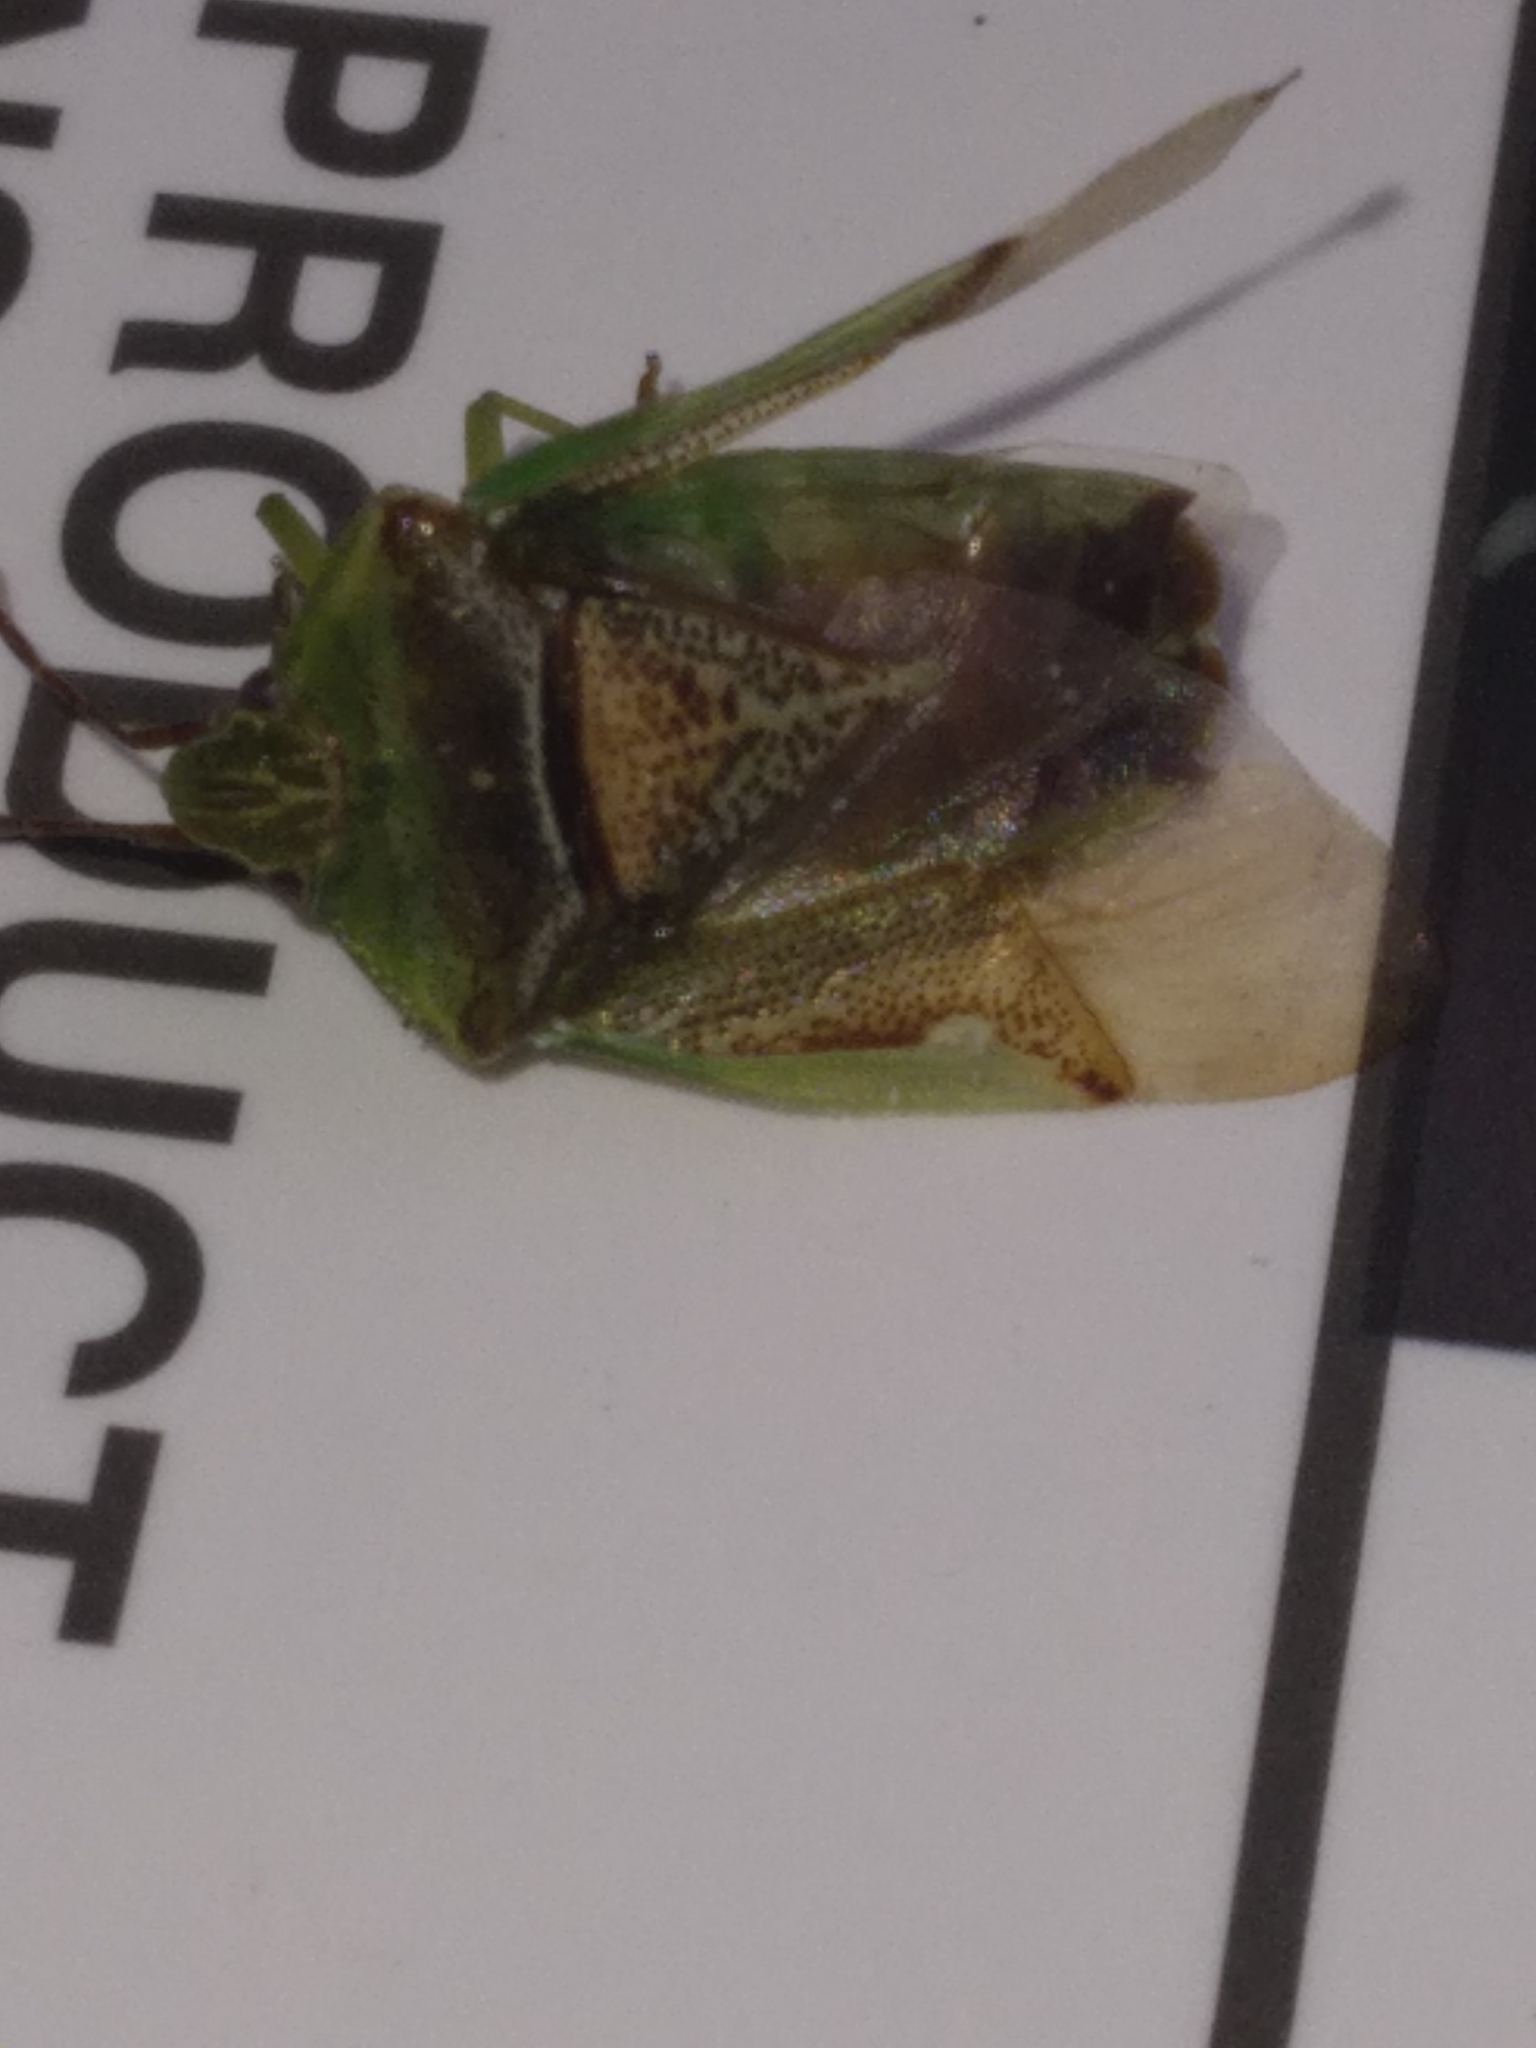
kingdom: Animalia
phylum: Arthropoda
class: Insecta
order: Hemiptera
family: Acanthosomatidae
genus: Oncacontias
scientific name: Oncacontias vittatus
